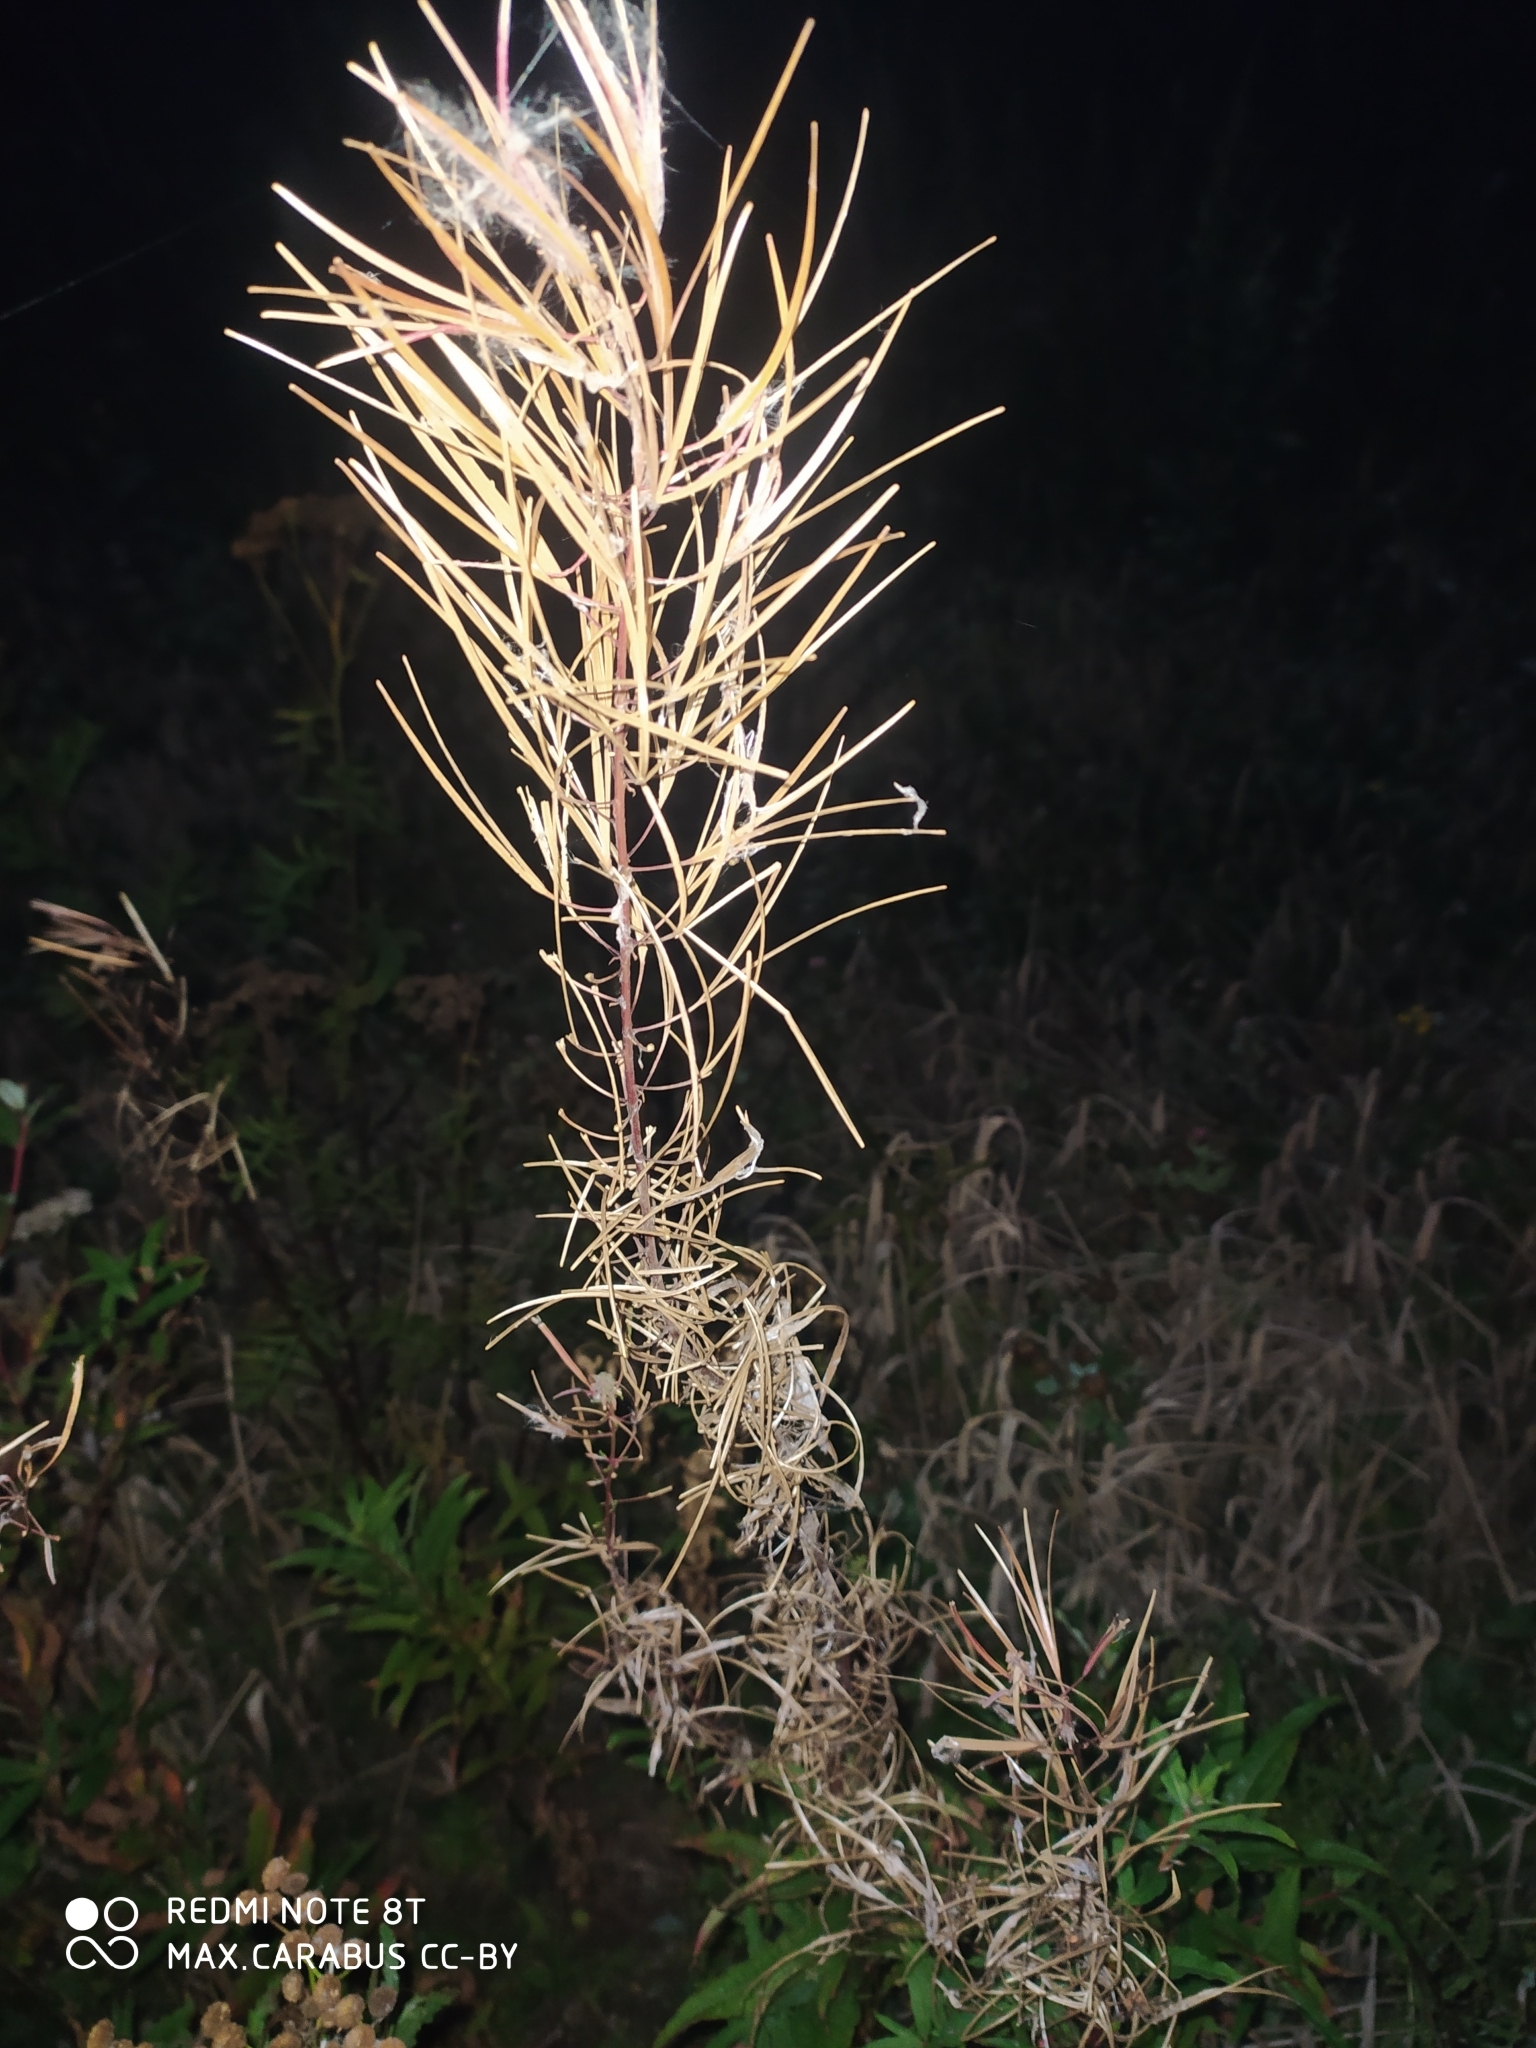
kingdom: Plantae
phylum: Tracheophyta
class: Magnoliopsida
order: Myrtales
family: Onagraceae
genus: Chamaenerion
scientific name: Chamaenerion angustifolium
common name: Fireweed
